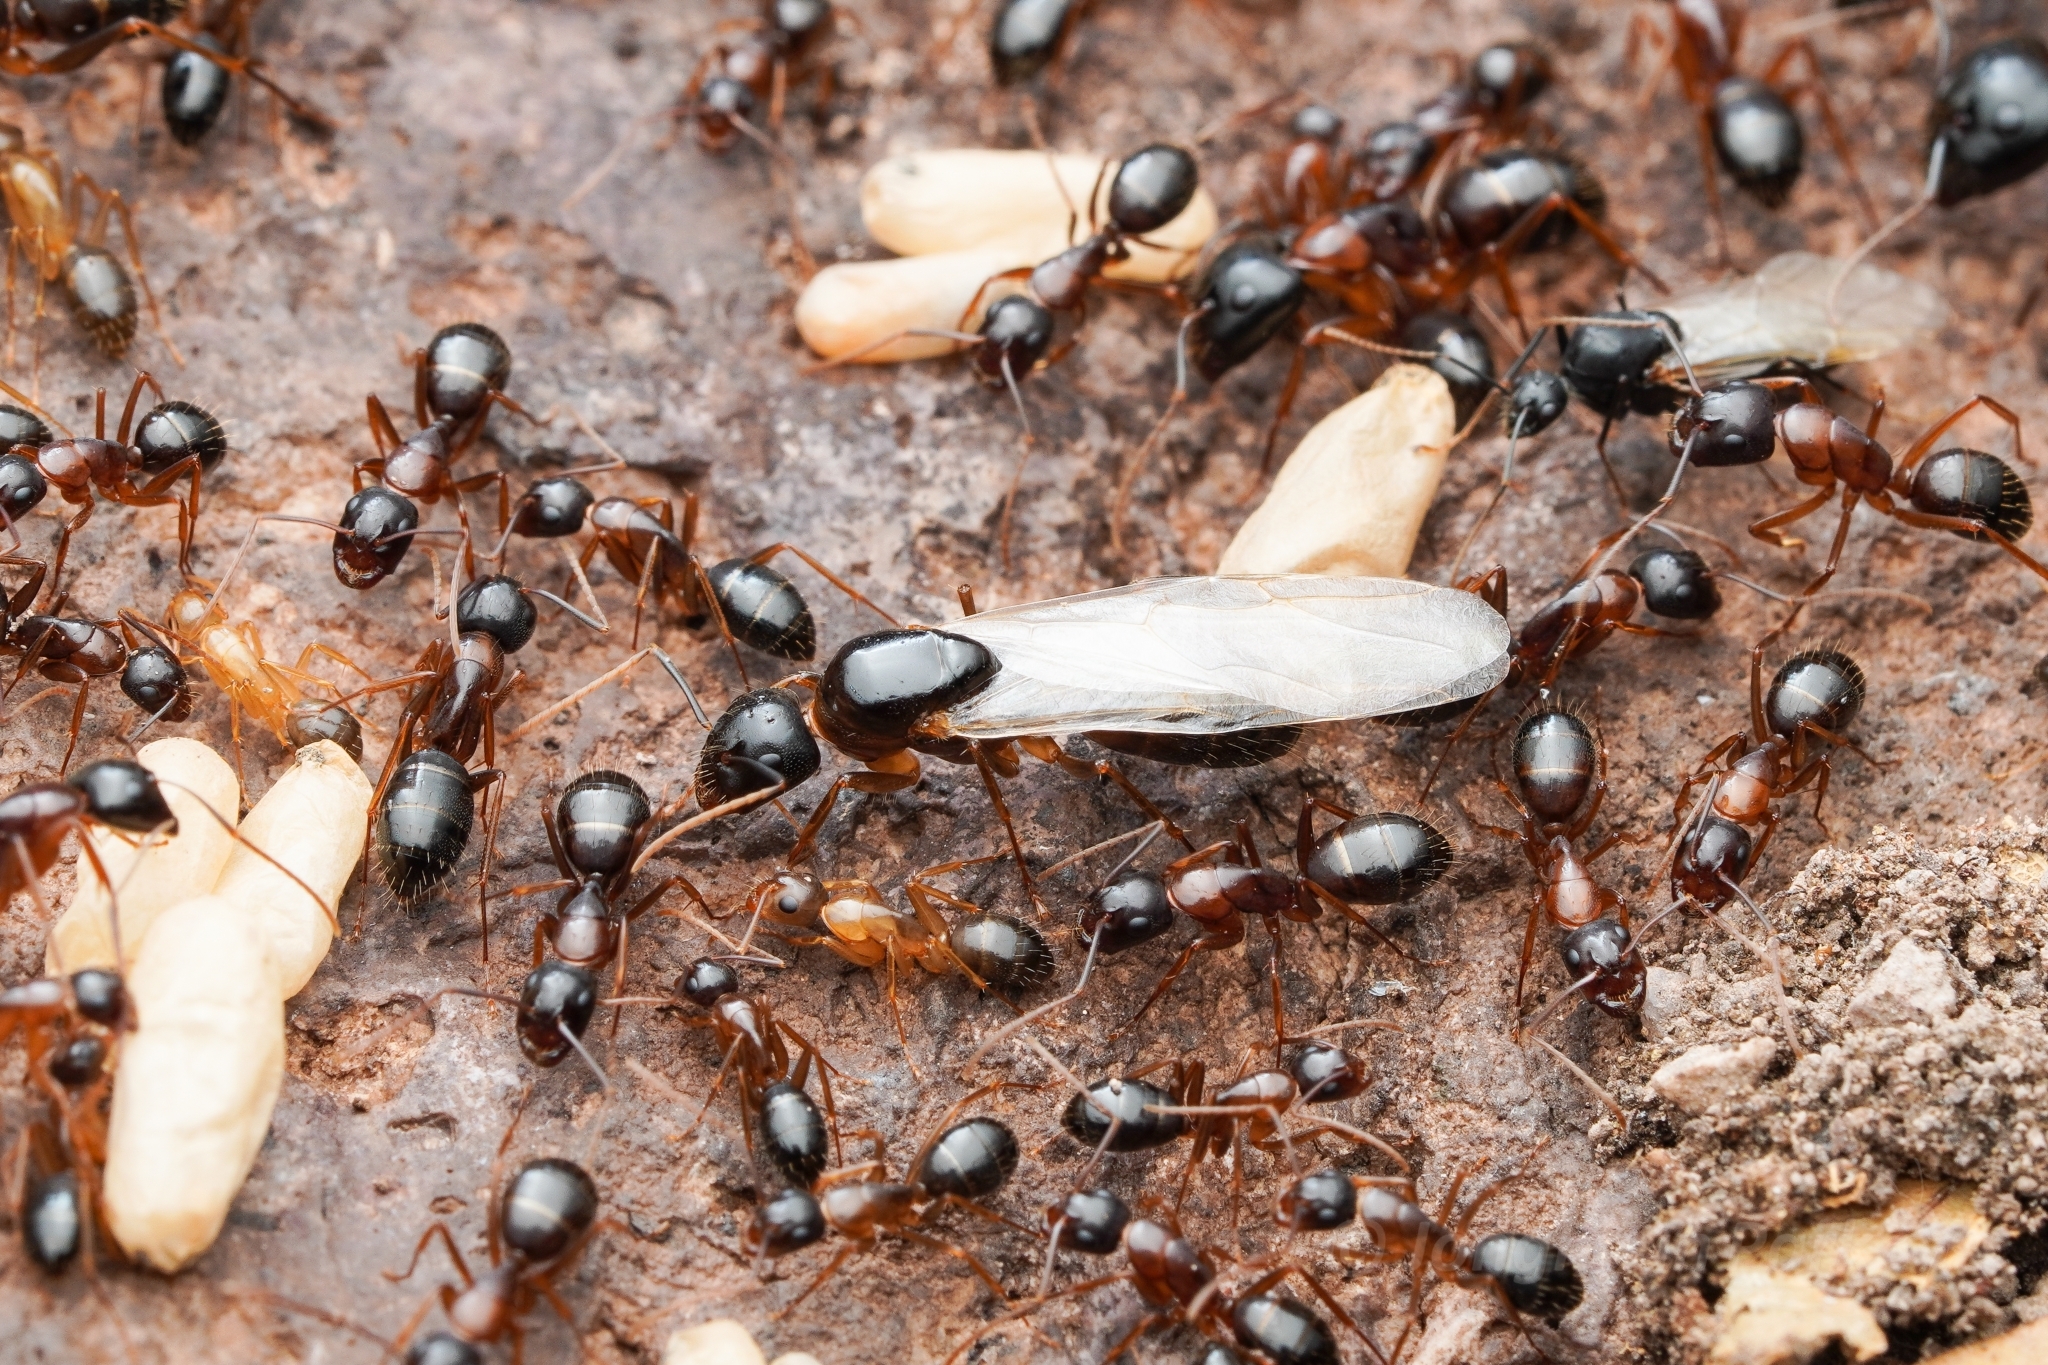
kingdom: Animalia
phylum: Arthropoda
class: Insecta
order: Hymenoptera
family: Formicidae
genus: Camponotus
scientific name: Camponotus sansabeanus
